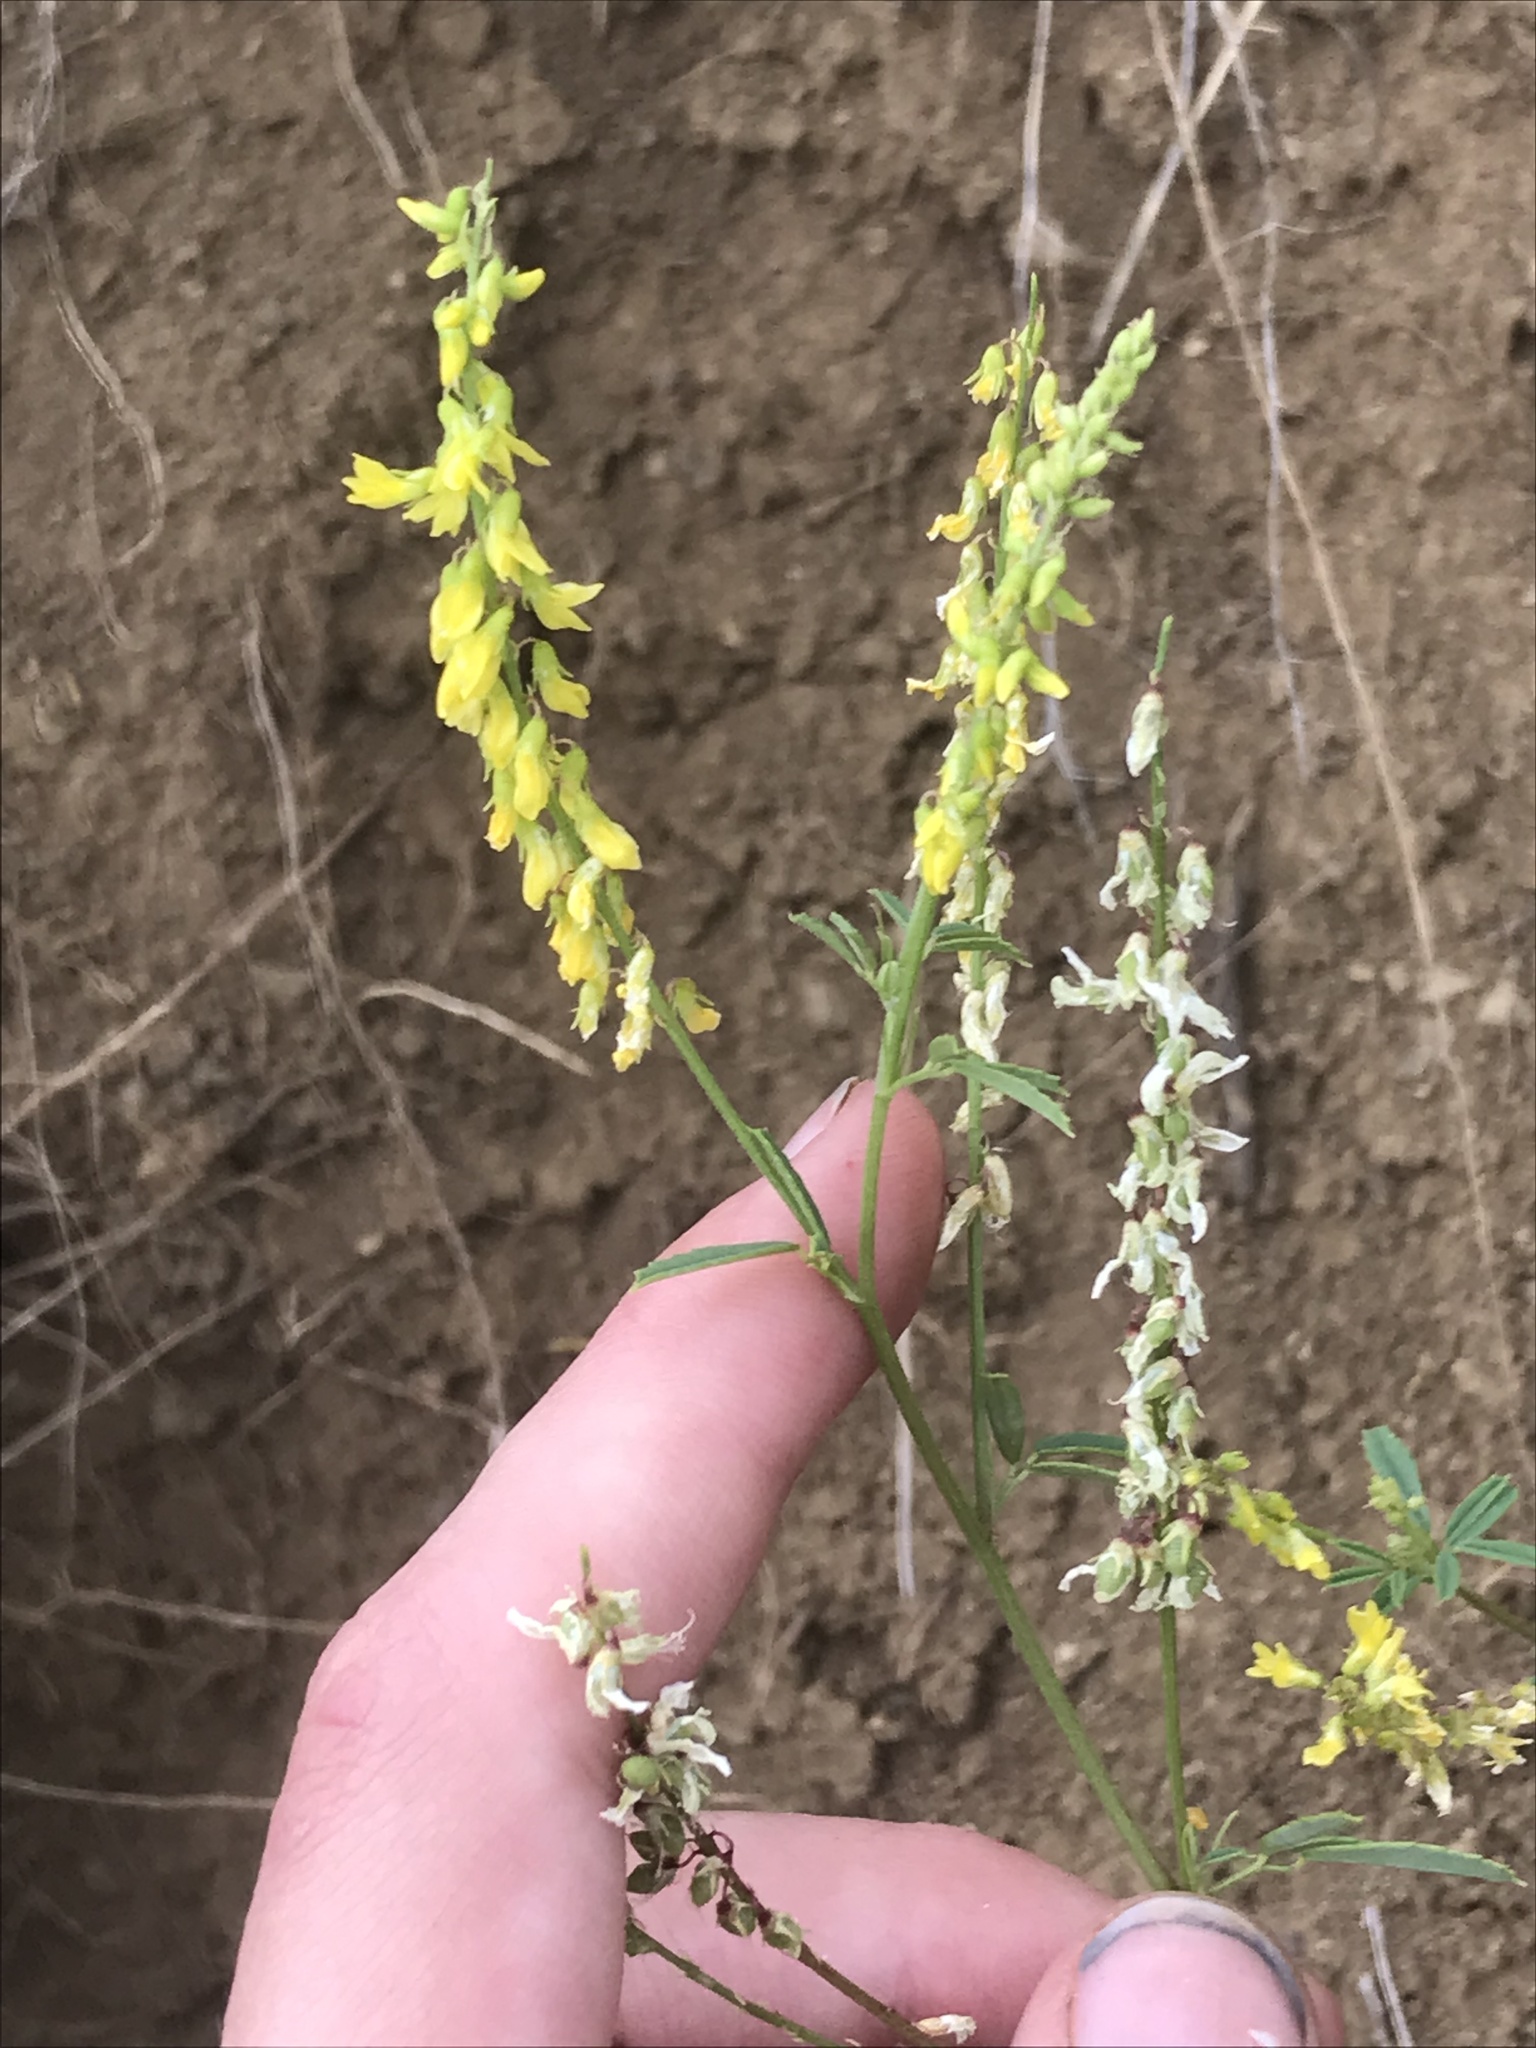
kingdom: Plantae
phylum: Tracheophyta
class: Magnoliopsida
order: Fabales
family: Fabaceae
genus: Melilotus
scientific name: Melilotus officinalis
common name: Sweetclover
